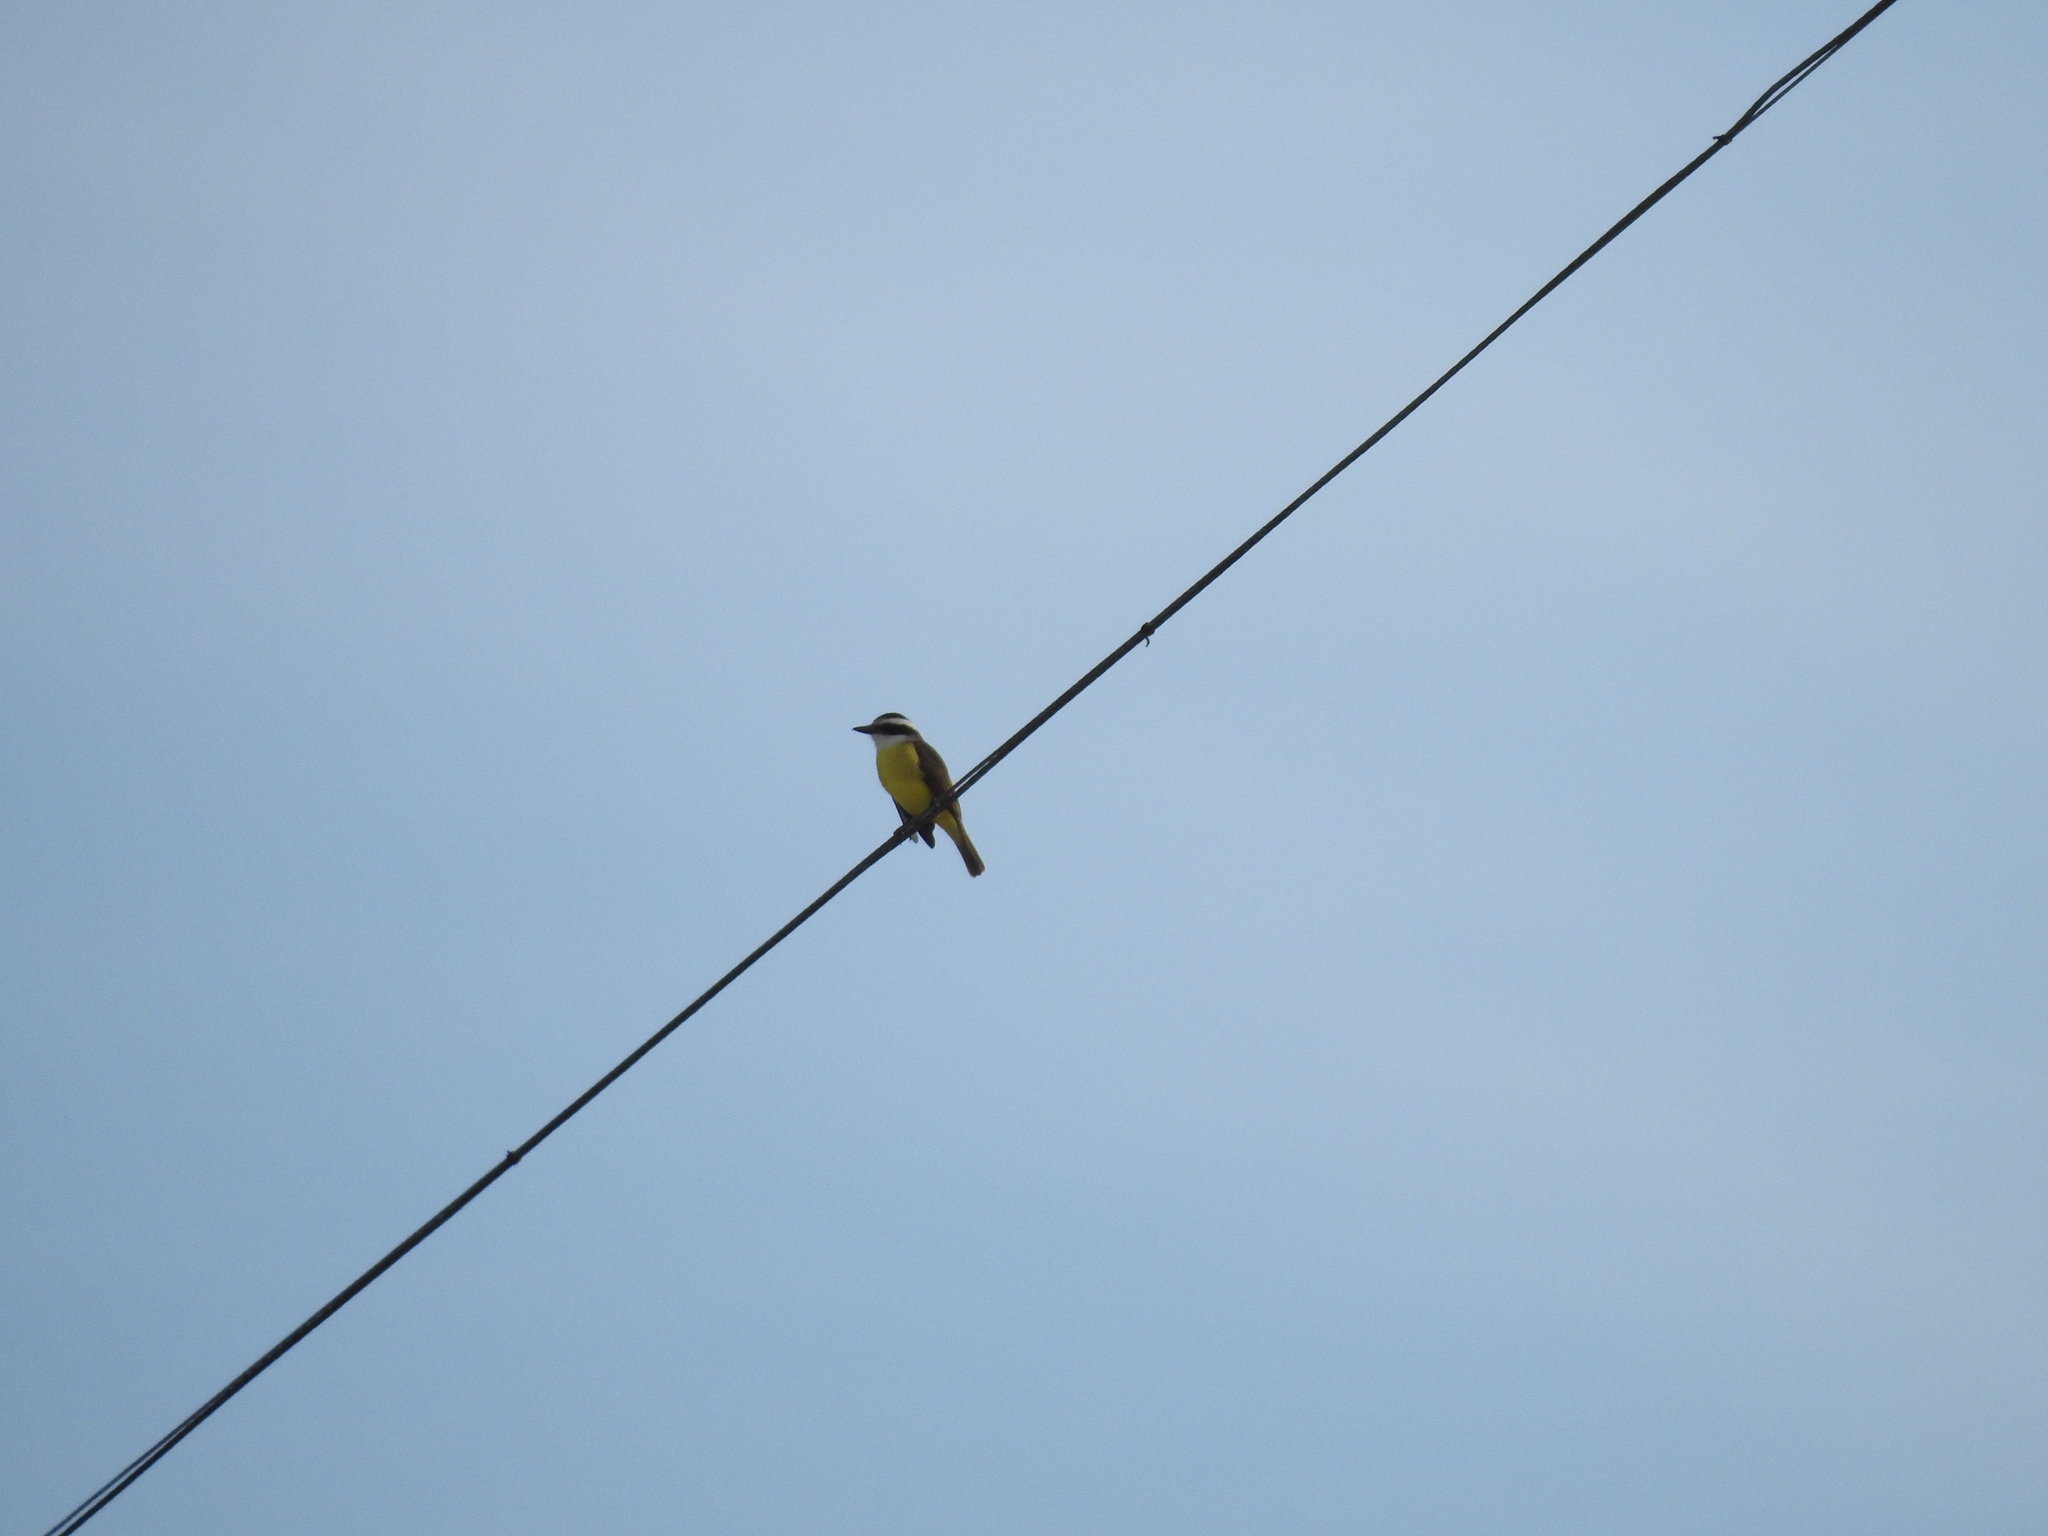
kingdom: Animalia
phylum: Chordata
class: Aves
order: Passeriformes
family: Tyrannidae
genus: Pitangus
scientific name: Pitangus sulphuratus
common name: Great kiskadee
